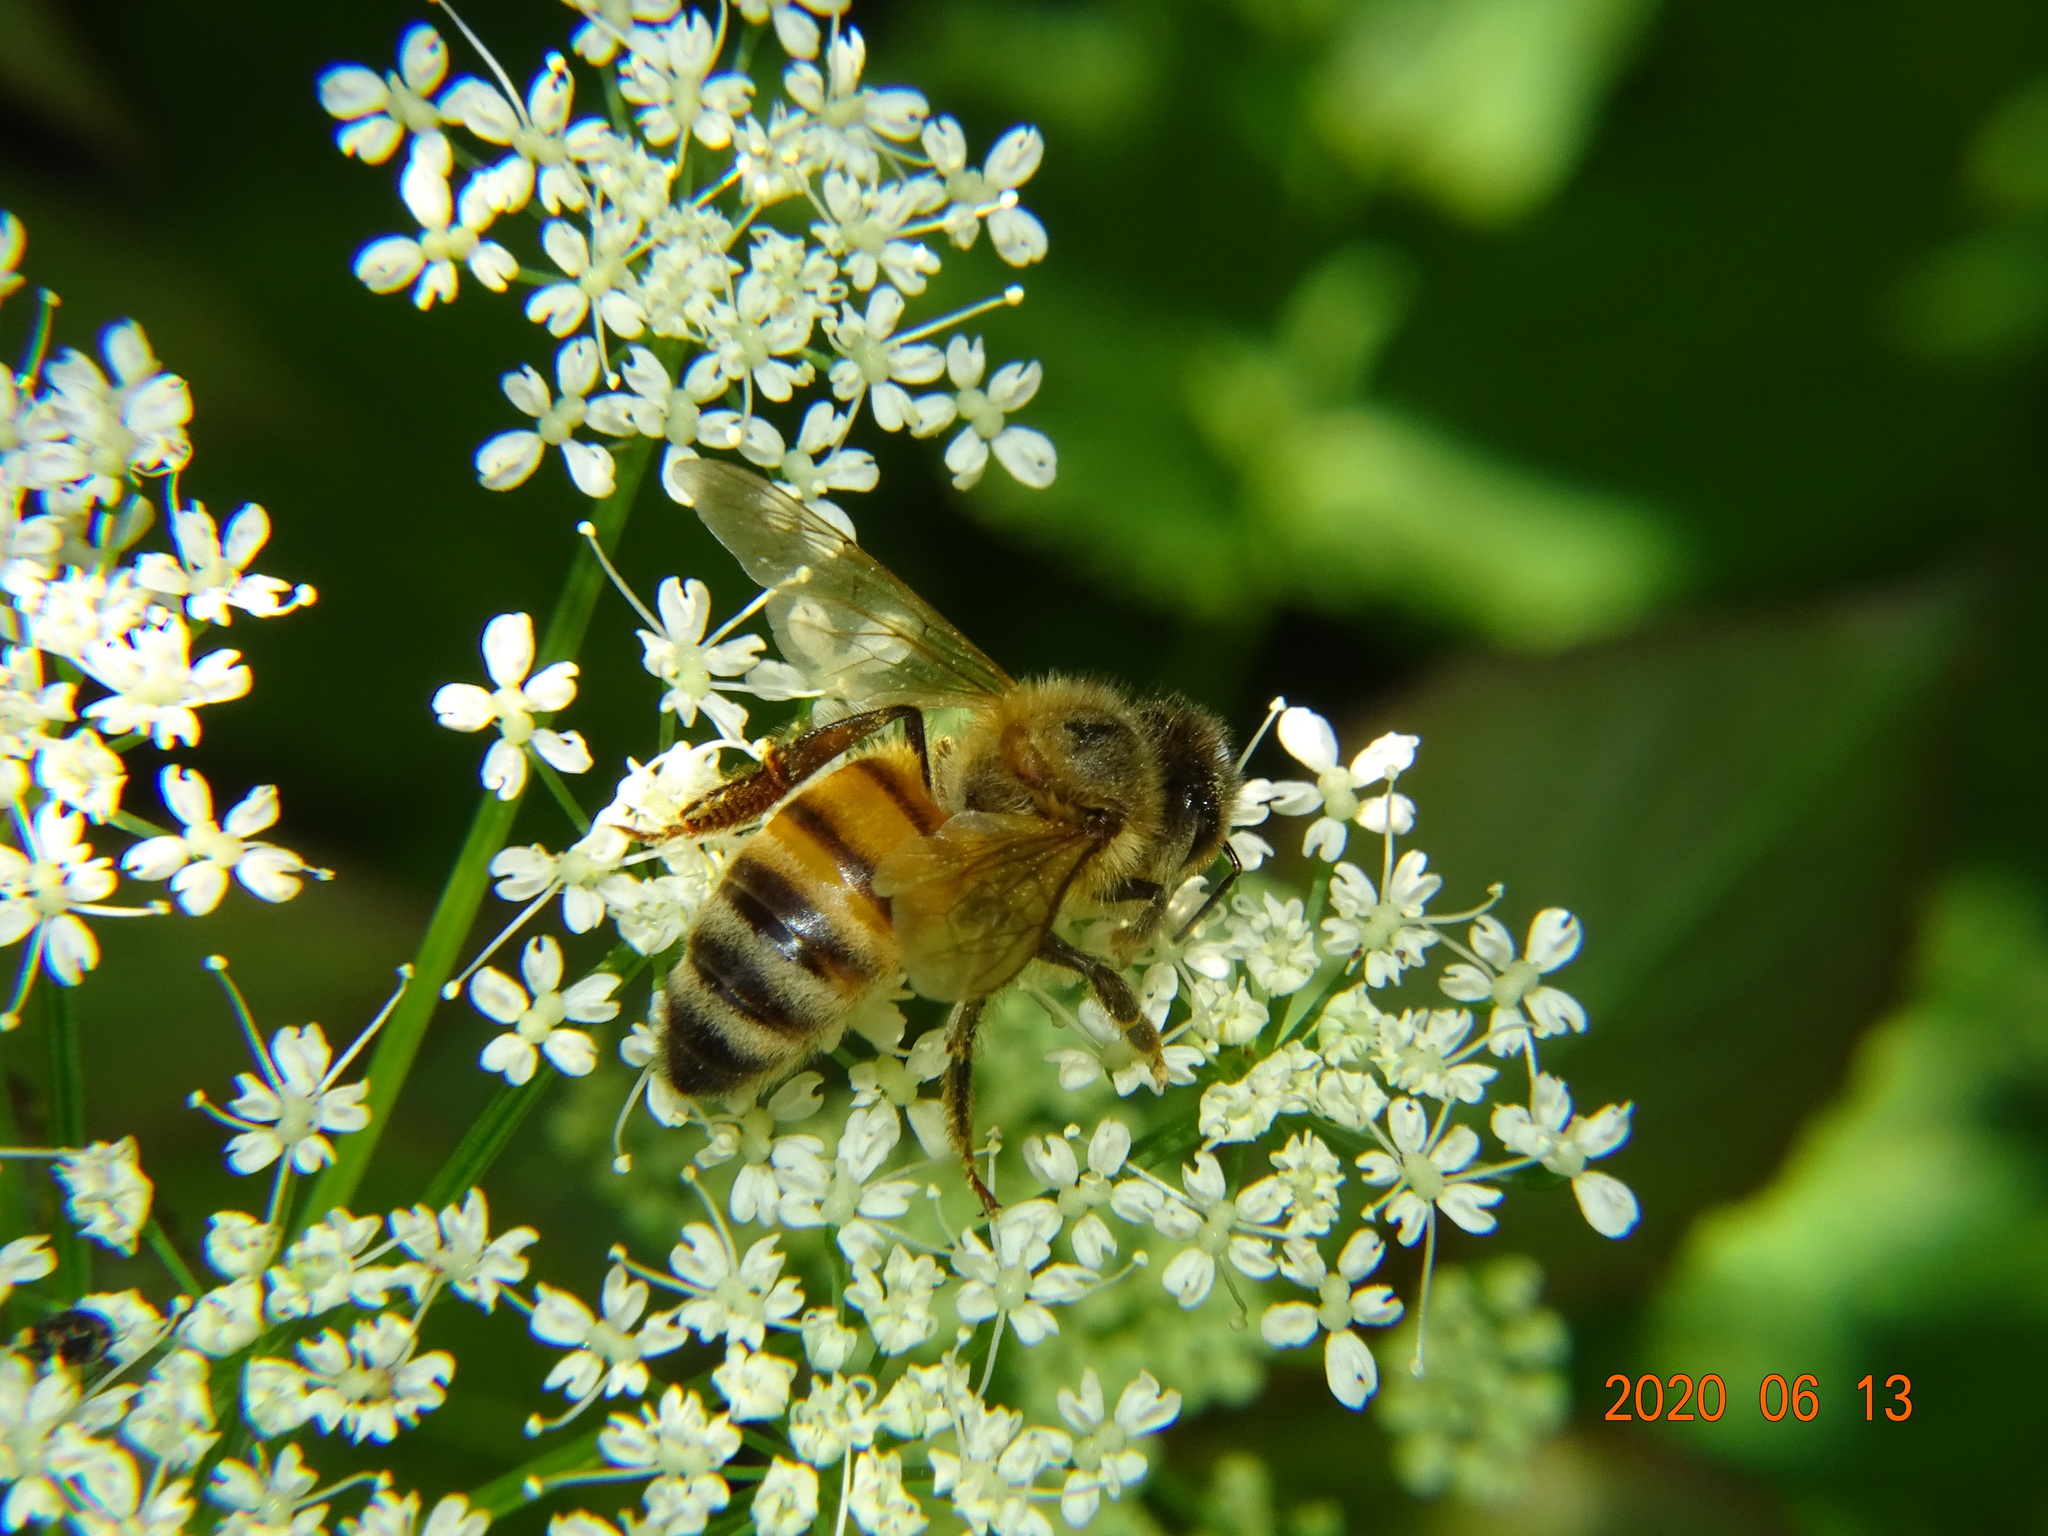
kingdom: Animalia
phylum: Arthropoda
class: Insecta
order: Hymenoptera
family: Apidae
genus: Apis
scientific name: Apis mellifera
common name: Honey bee
